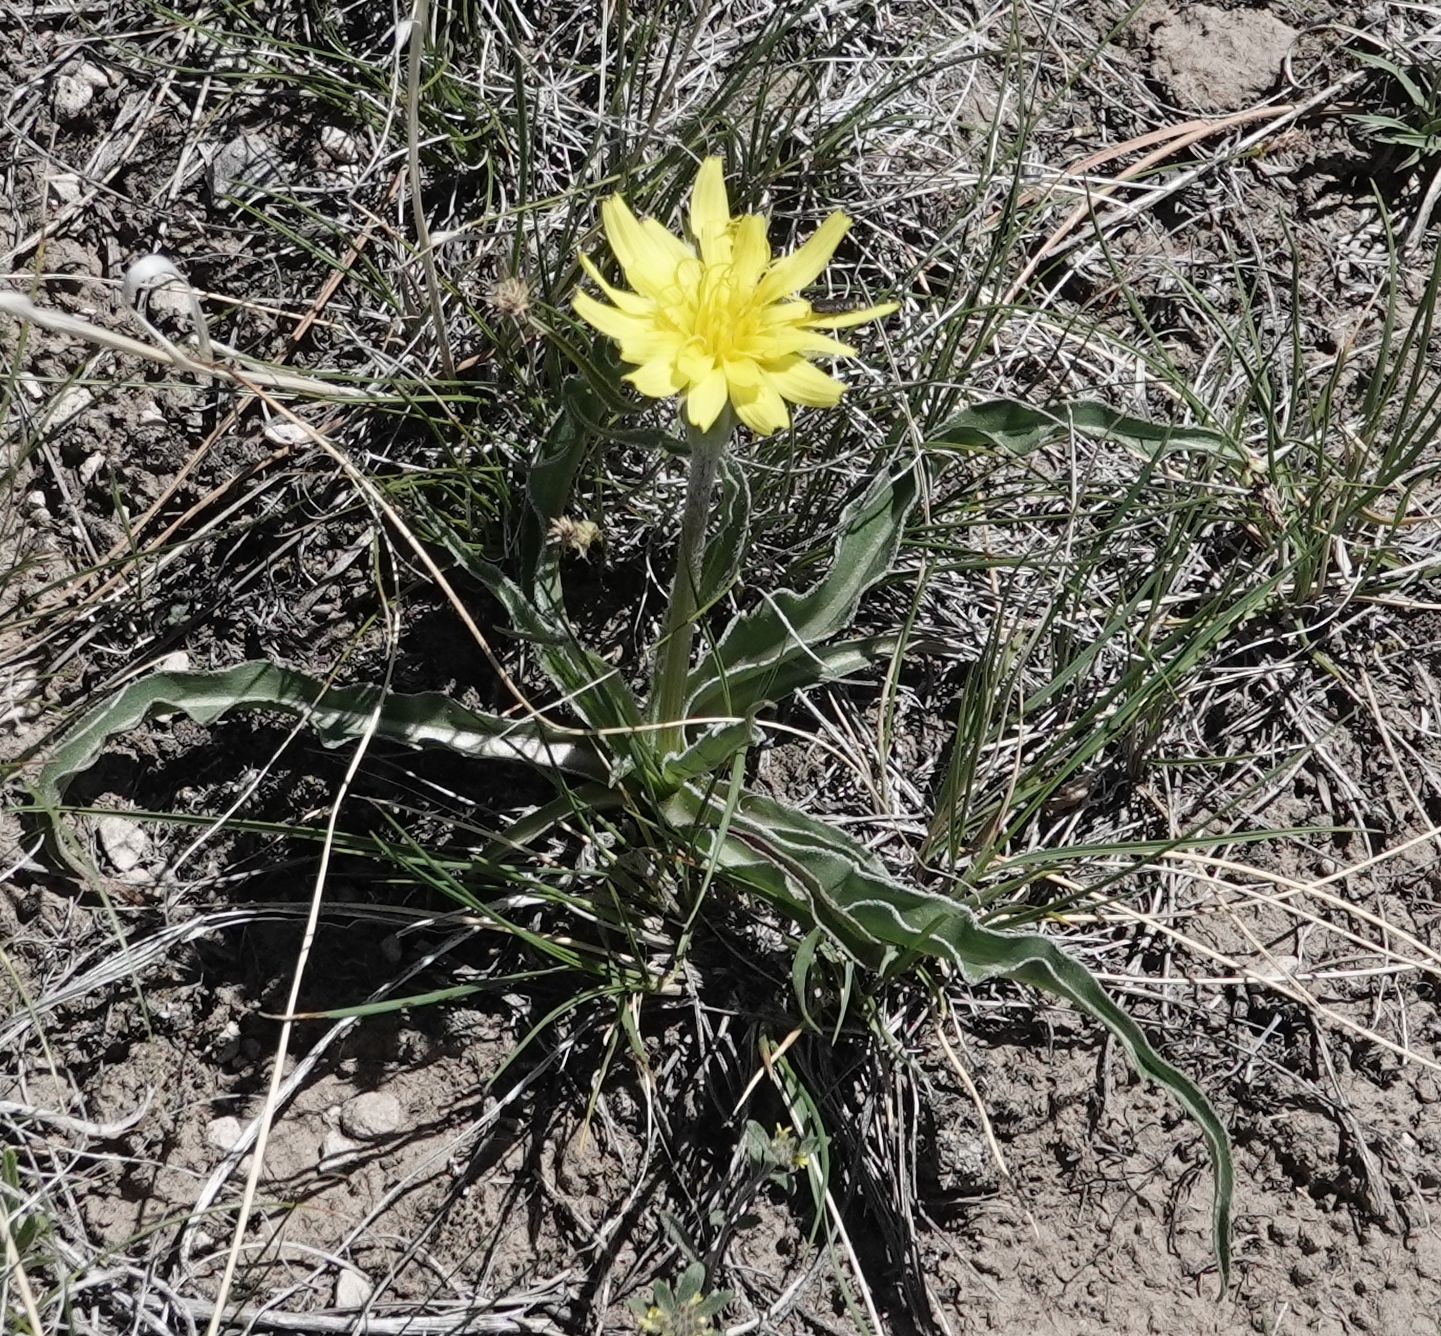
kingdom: Plantae
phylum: Tracheophyta
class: Magnoliopsida
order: Asterales
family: Asteraceae
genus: Microseris
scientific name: Microseris cuspidata
